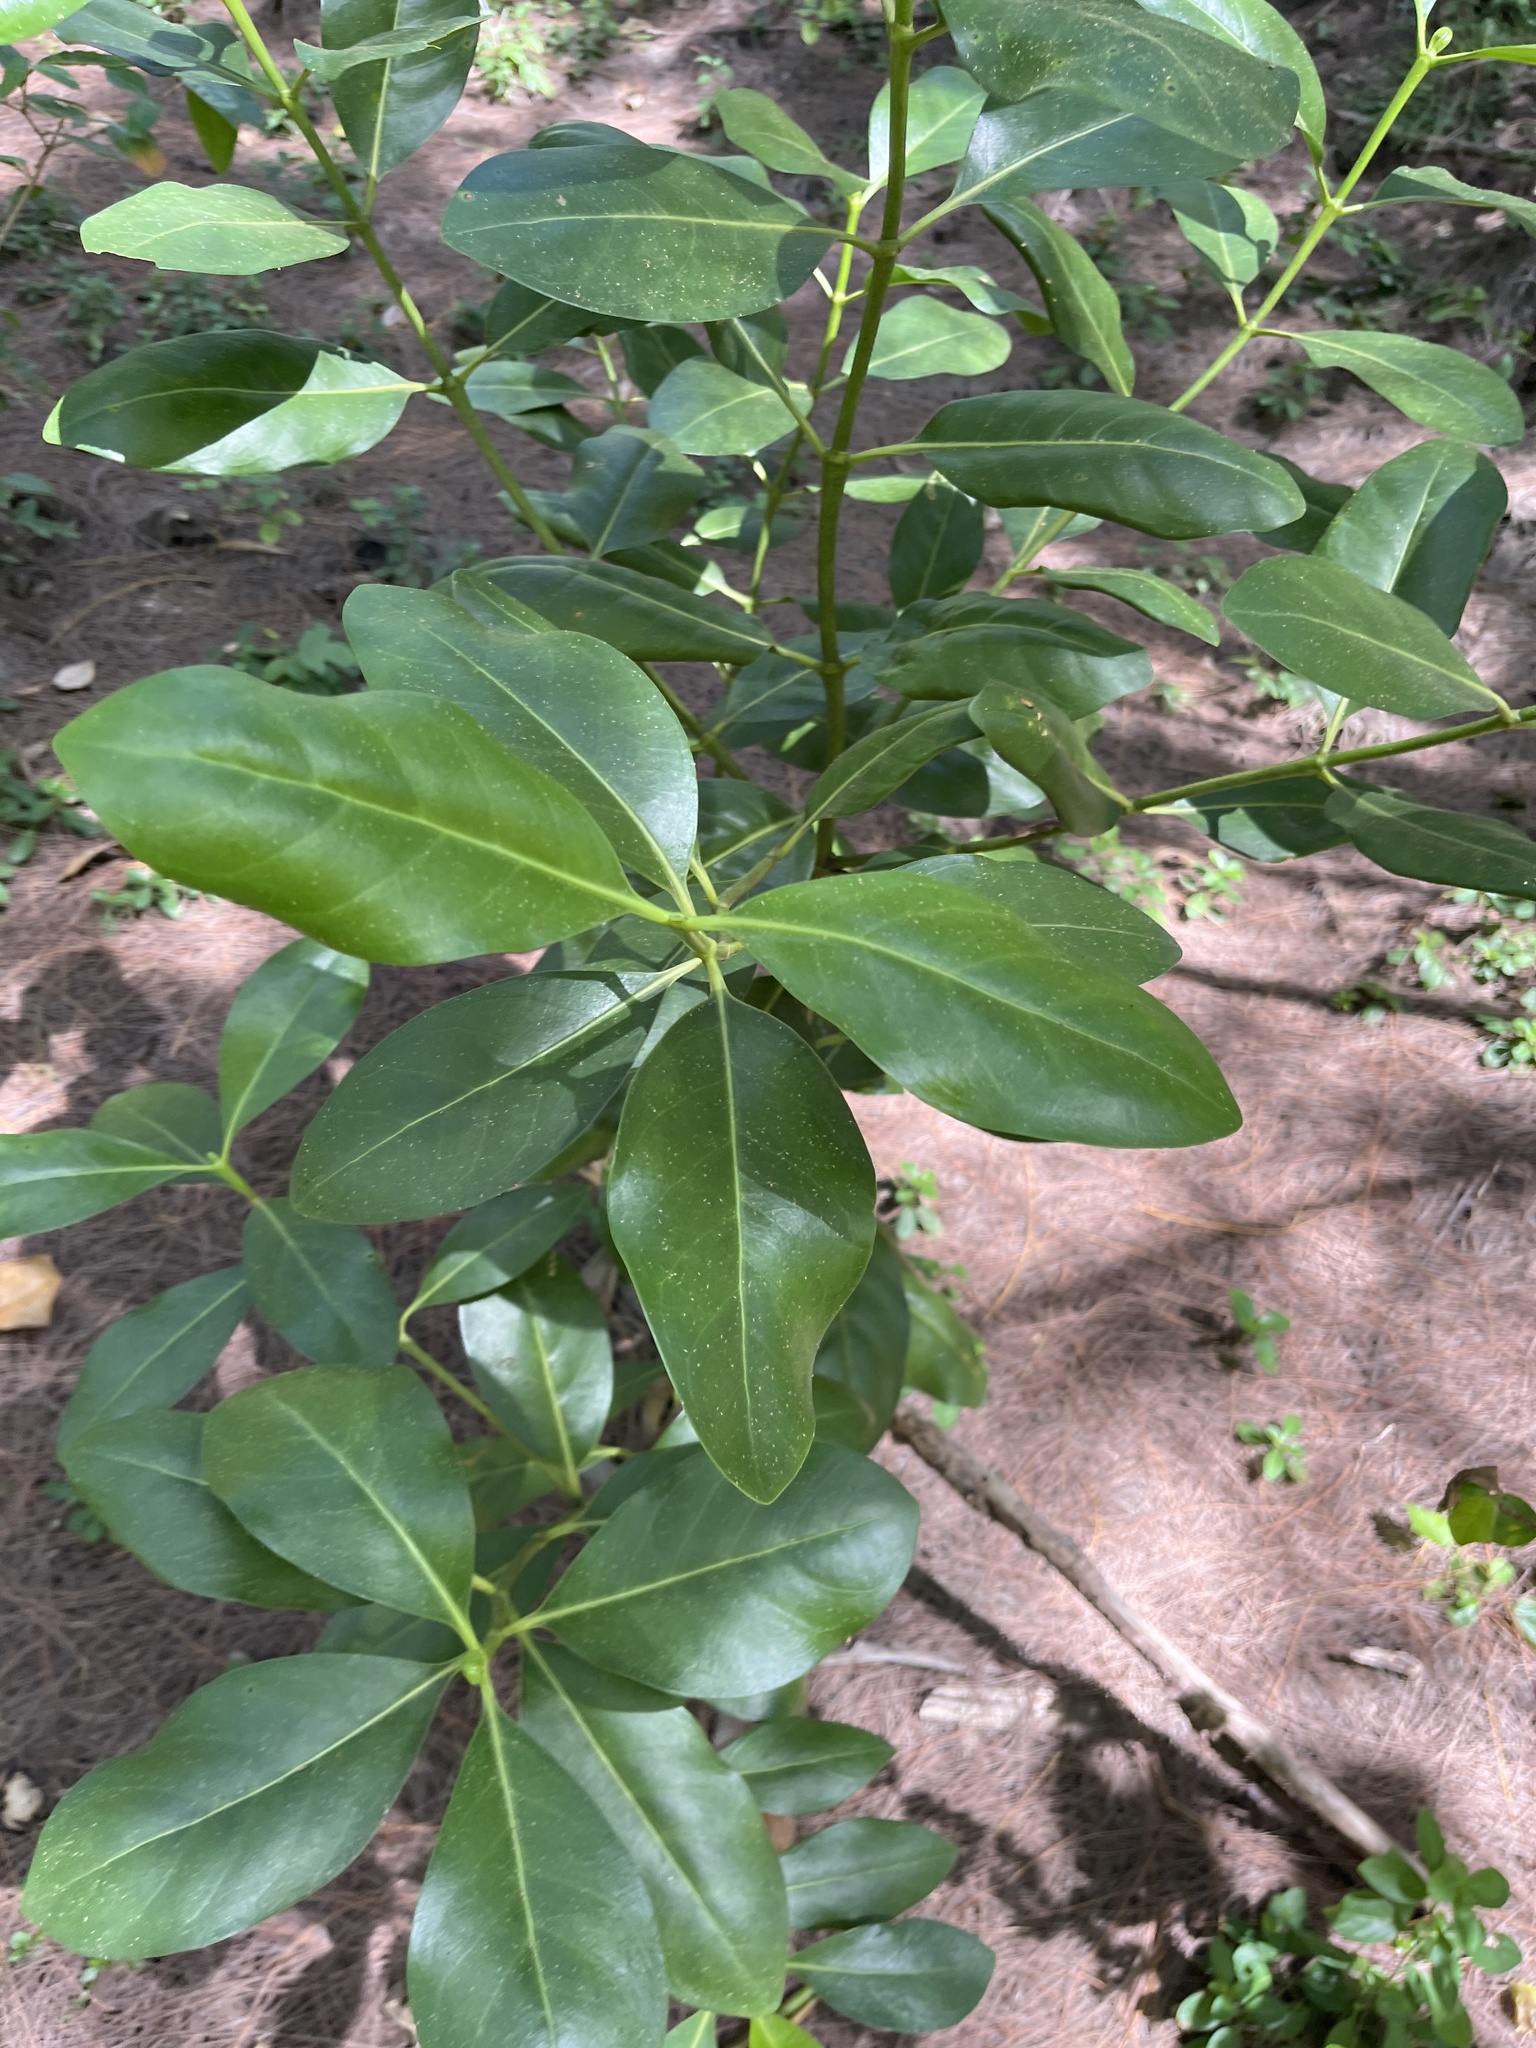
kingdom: Plantae
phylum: Tracheophyta
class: Magnoliopsida
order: Gentianales
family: Rubiaceae
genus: Erithalis
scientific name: Erithalis fruticosa
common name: Candlewood
